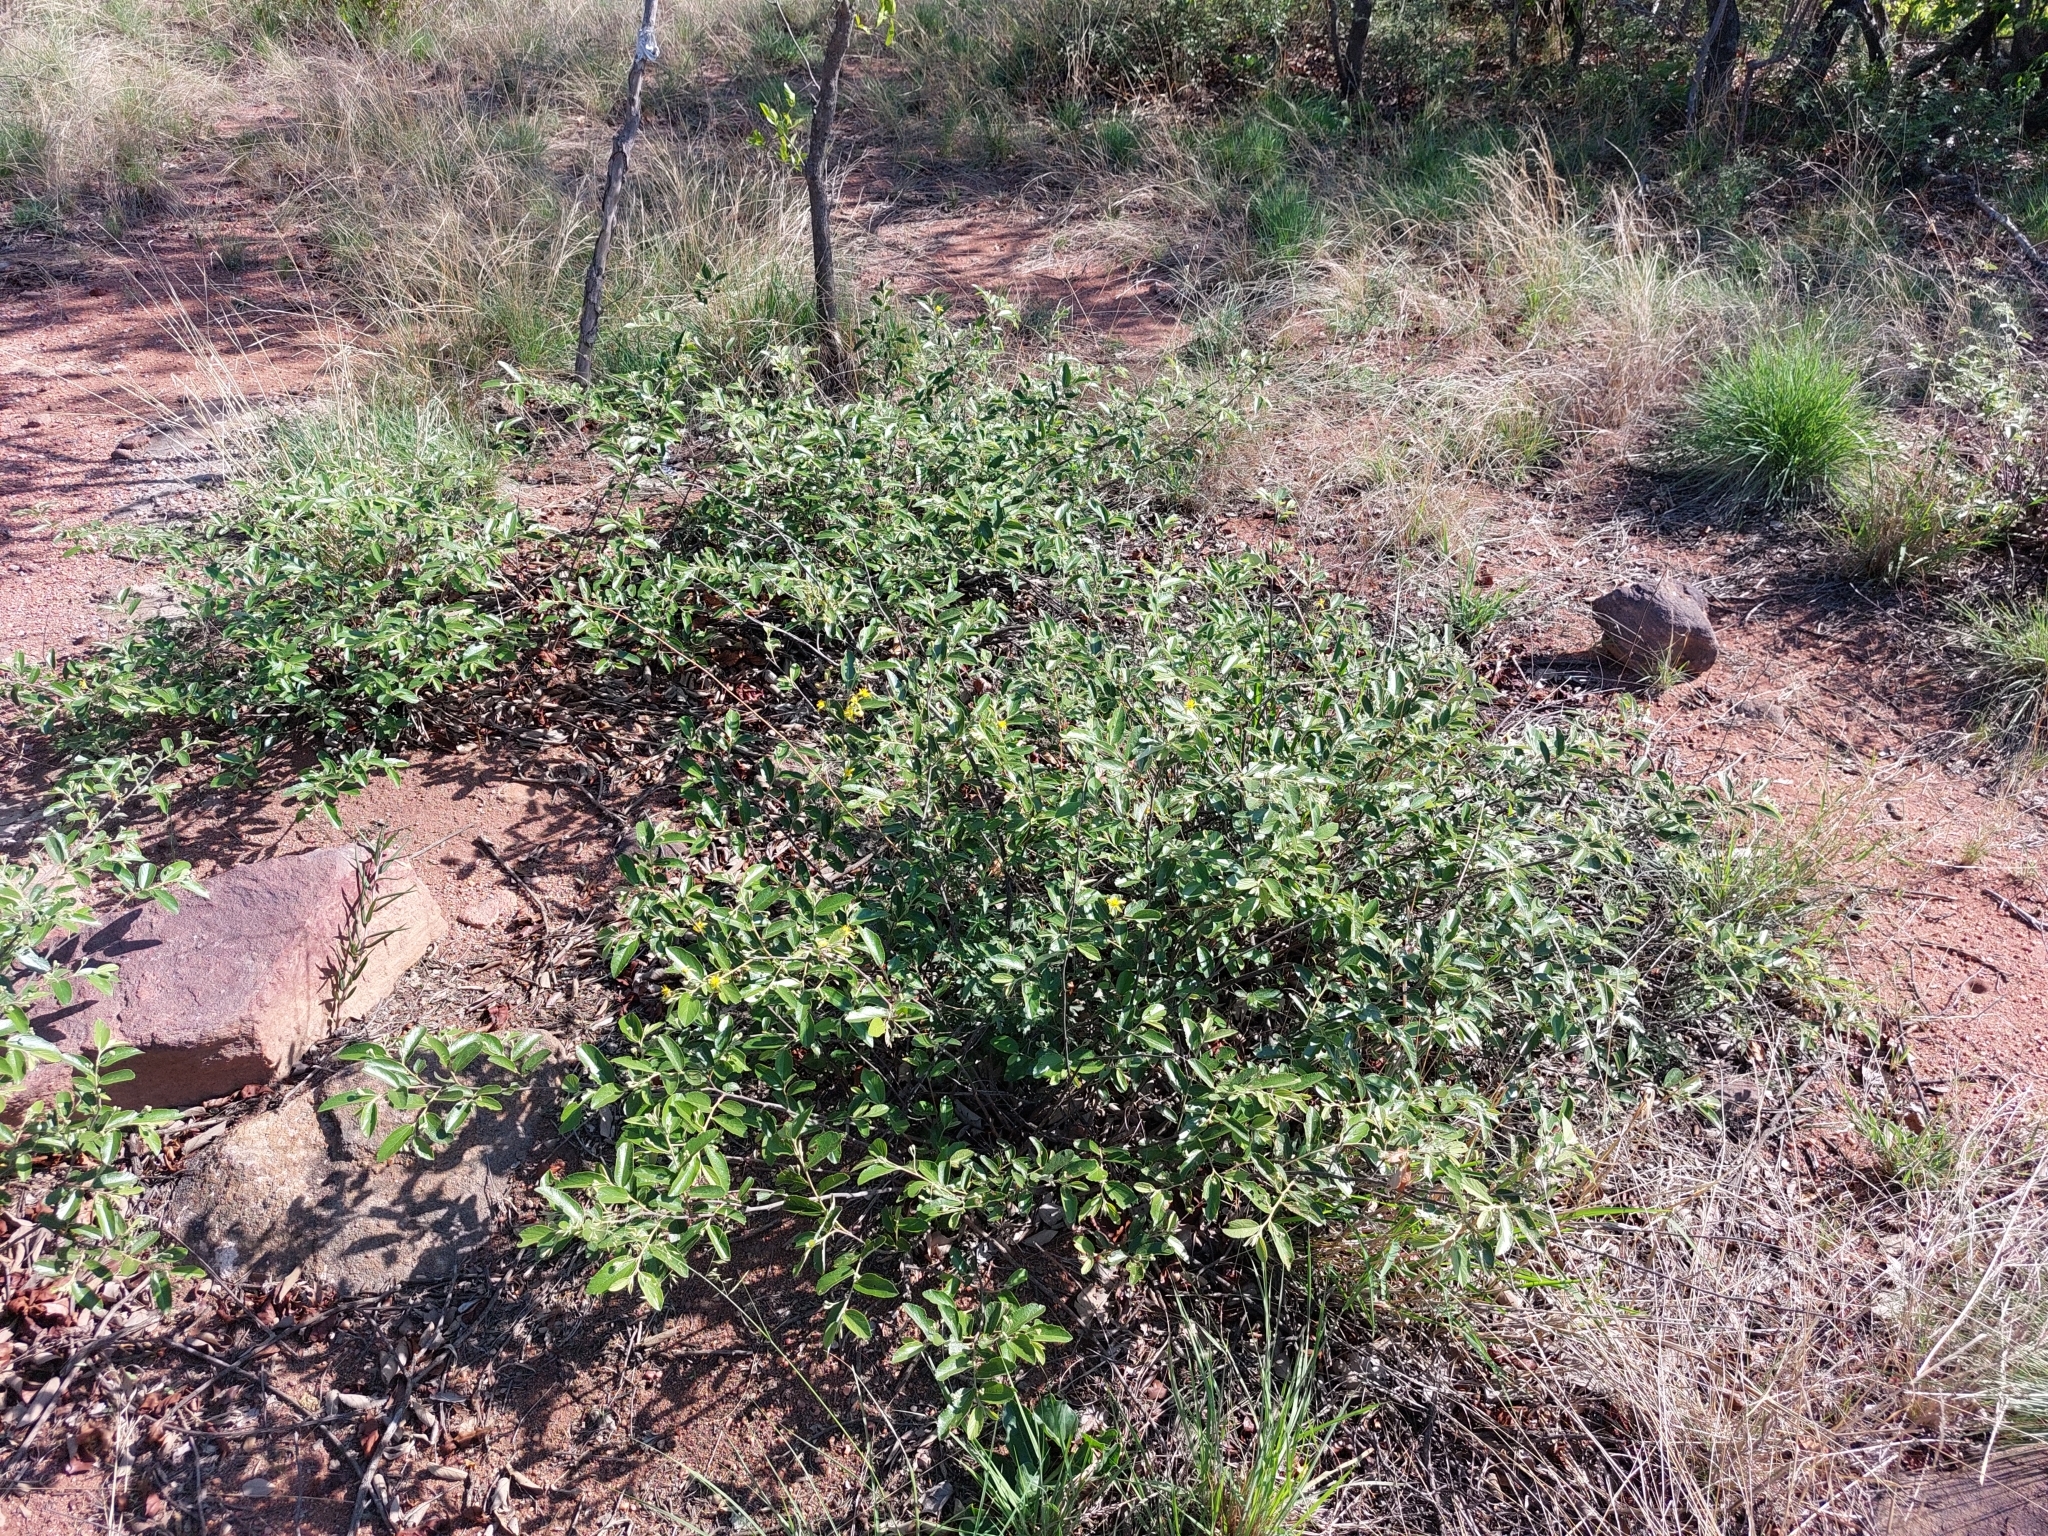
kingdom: Plantae
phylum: Tracheophyta
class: Magnoliopsida
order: Malvales
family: Malvaceae
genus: Grewia
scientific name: Grewia rogersii
